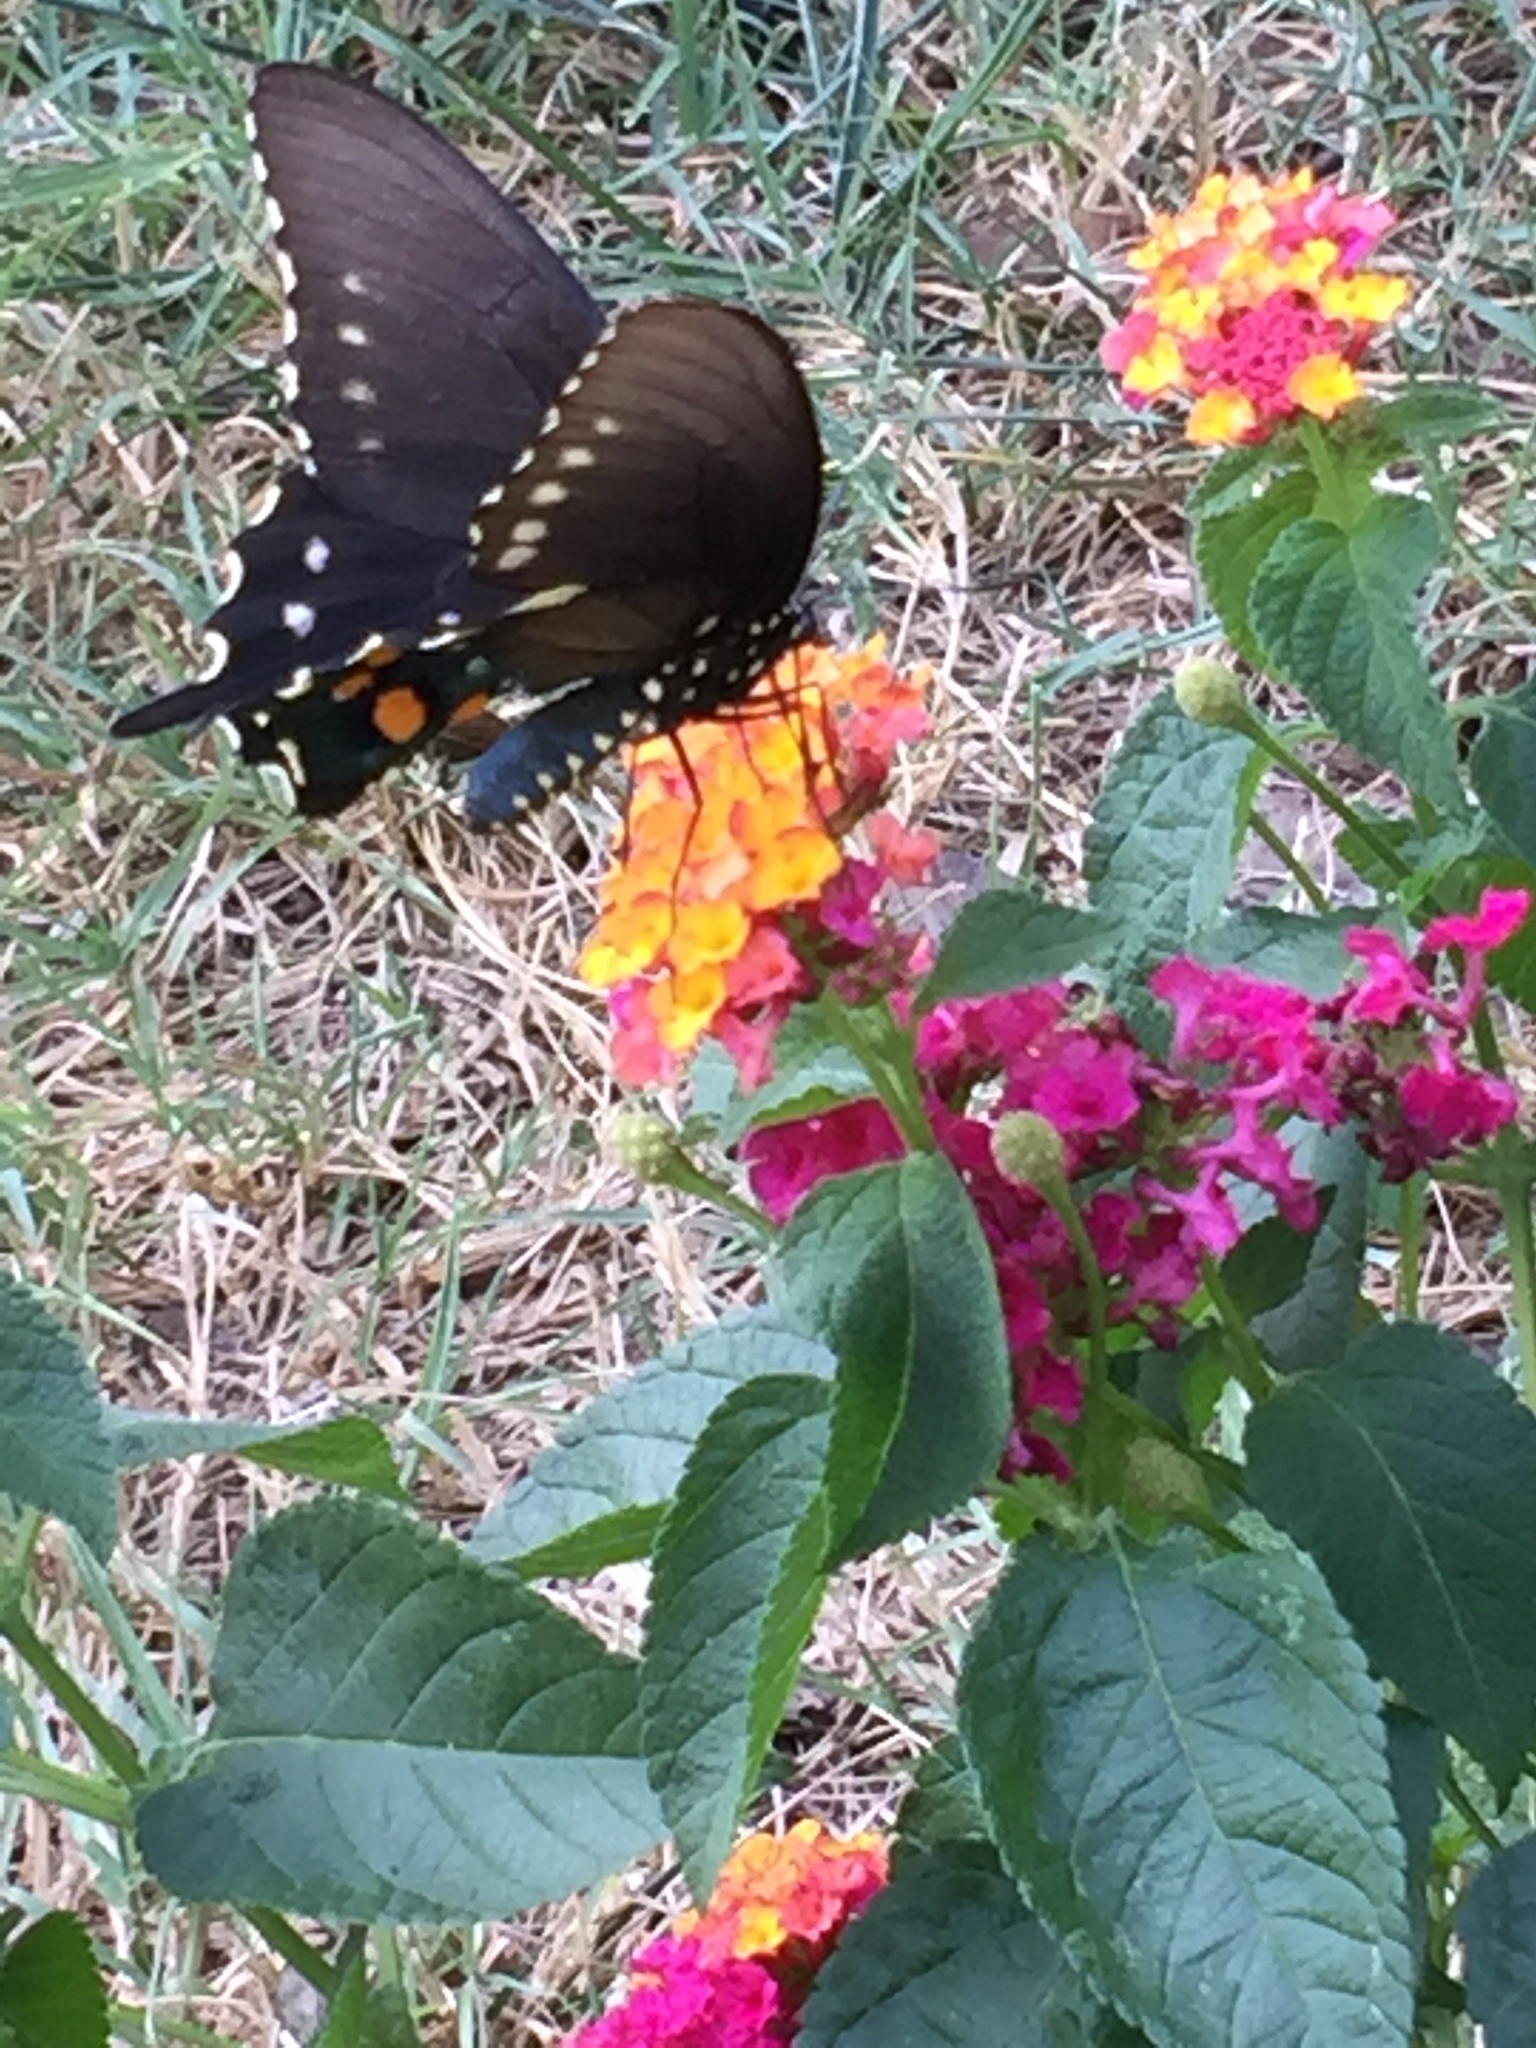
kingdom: Animalia
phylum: Arthropoda
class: Insecta
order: Lepidoptera
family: Papilionidae
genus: Battus
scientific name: Battus philenor
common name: Pipevine swallowtail
